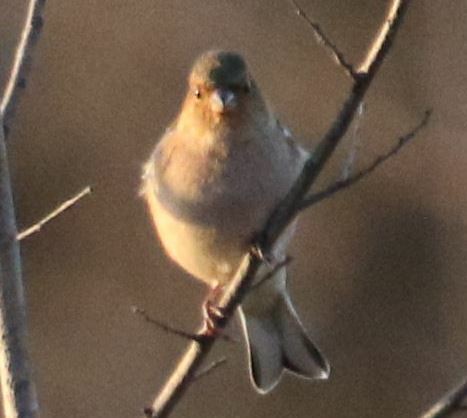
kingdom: Animalia
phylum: Chordata
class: Aves
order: Passeriformes
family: Fringillidae
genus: Fringilla
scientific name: Fringilla coelebs
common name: Common chaffinch
